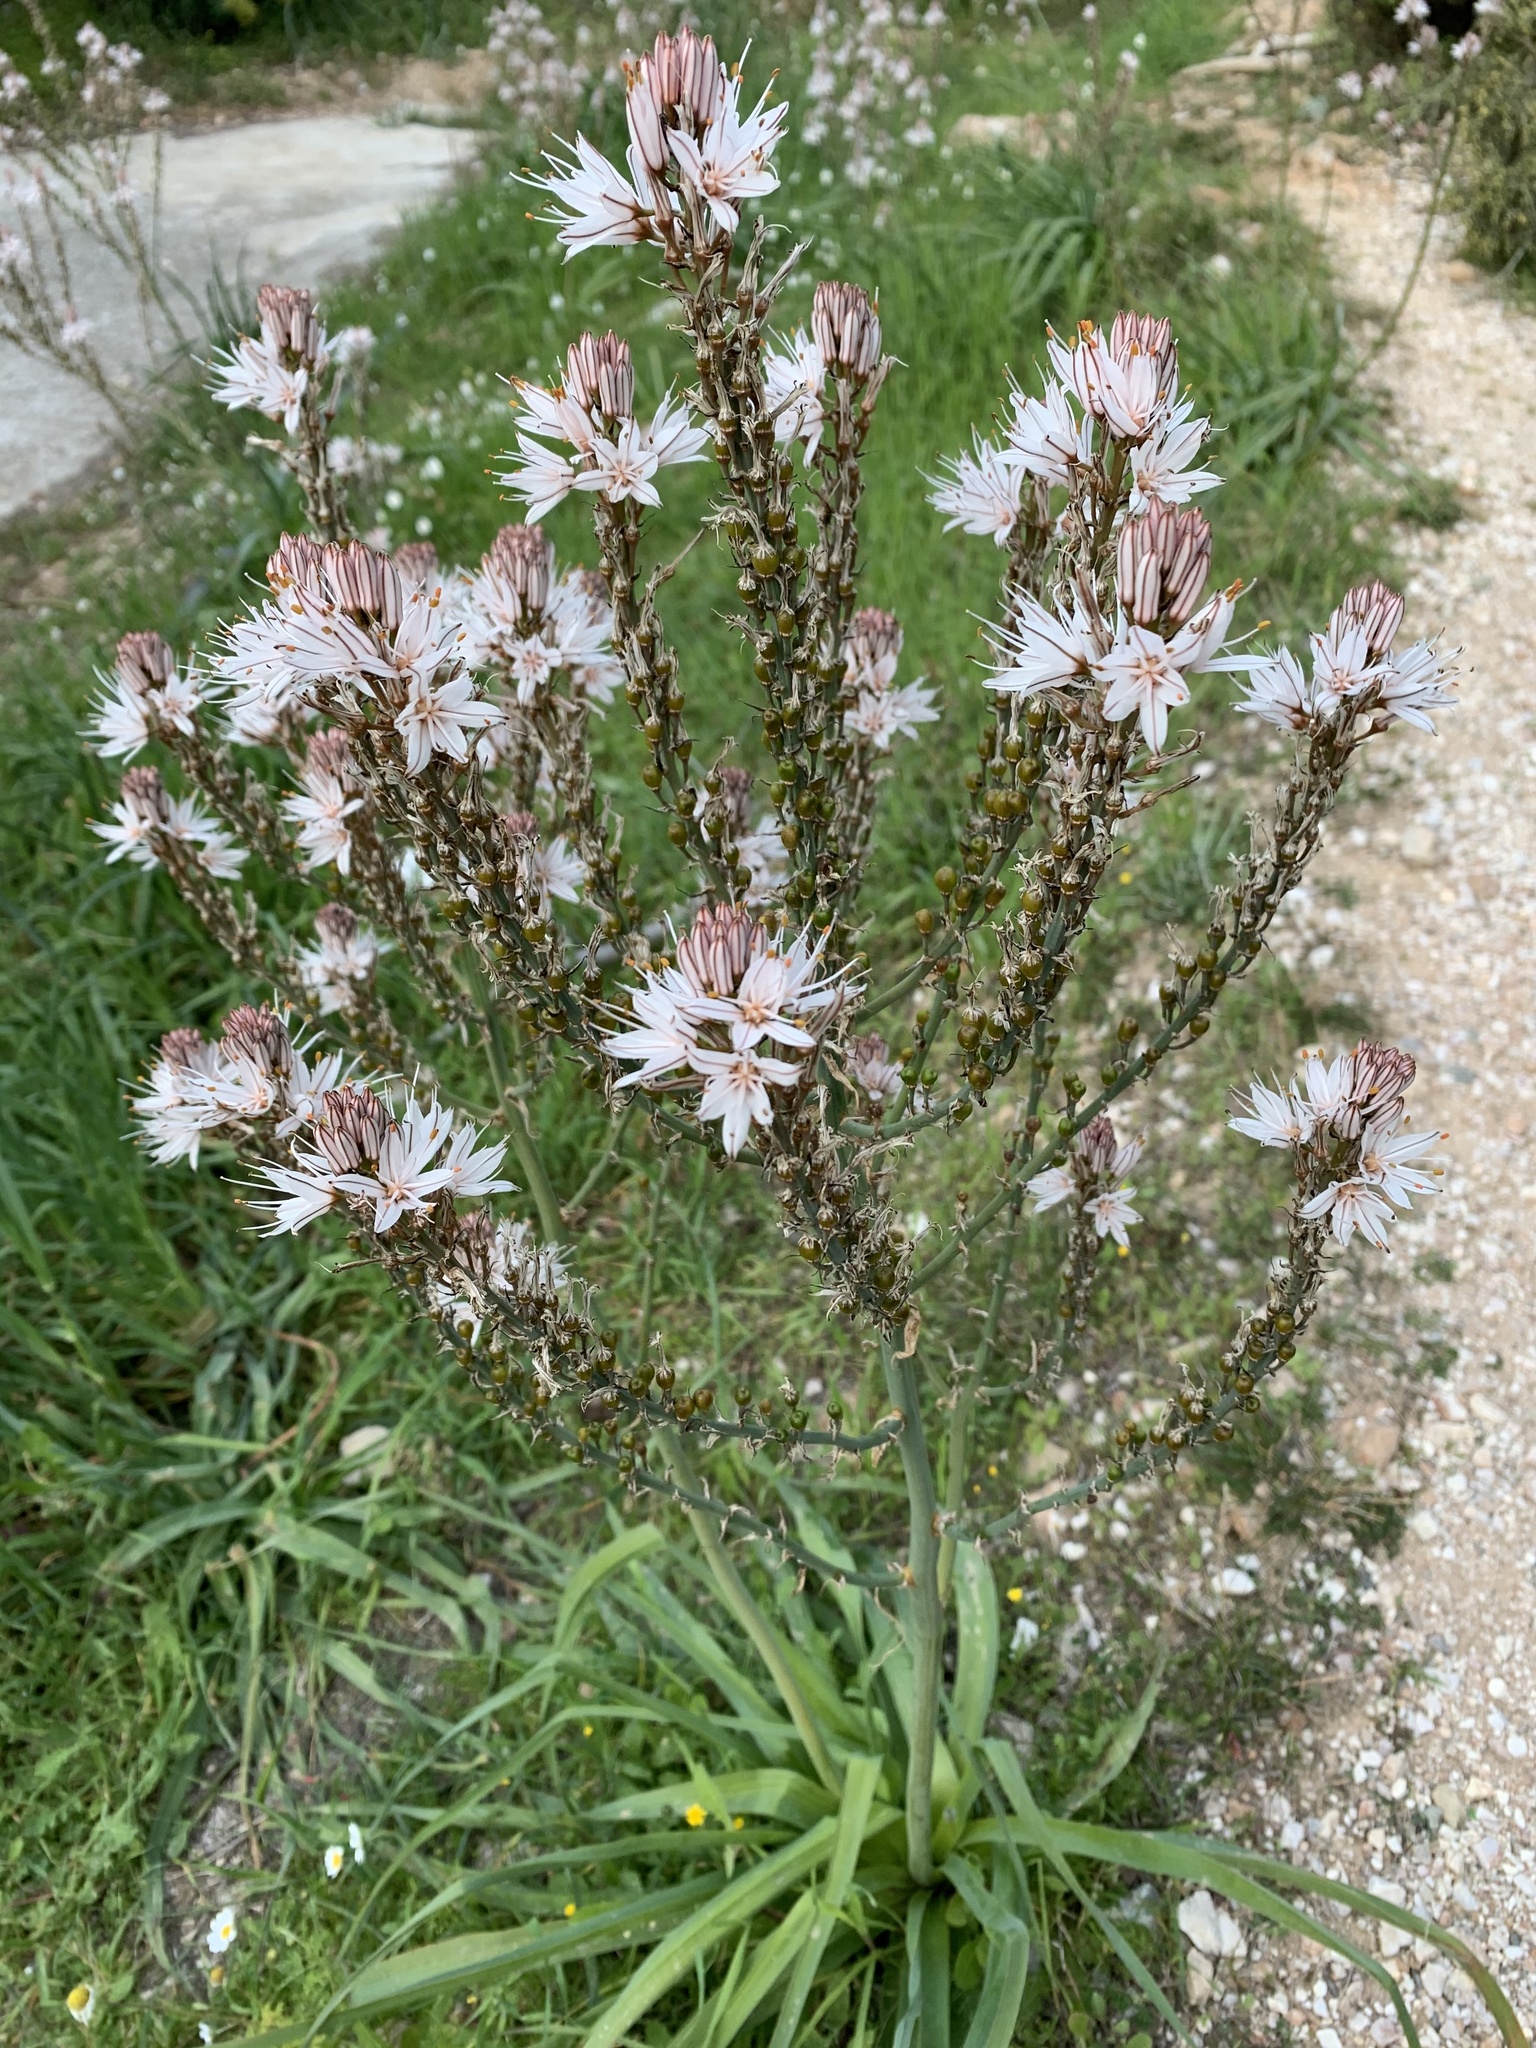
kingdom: Plantae
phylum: Tracheophyta
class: Liliopsida
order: Asparagales
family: Asphodelaceae
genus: Asphodelus
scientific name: Asphodelus ramosus
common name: Silverrod
